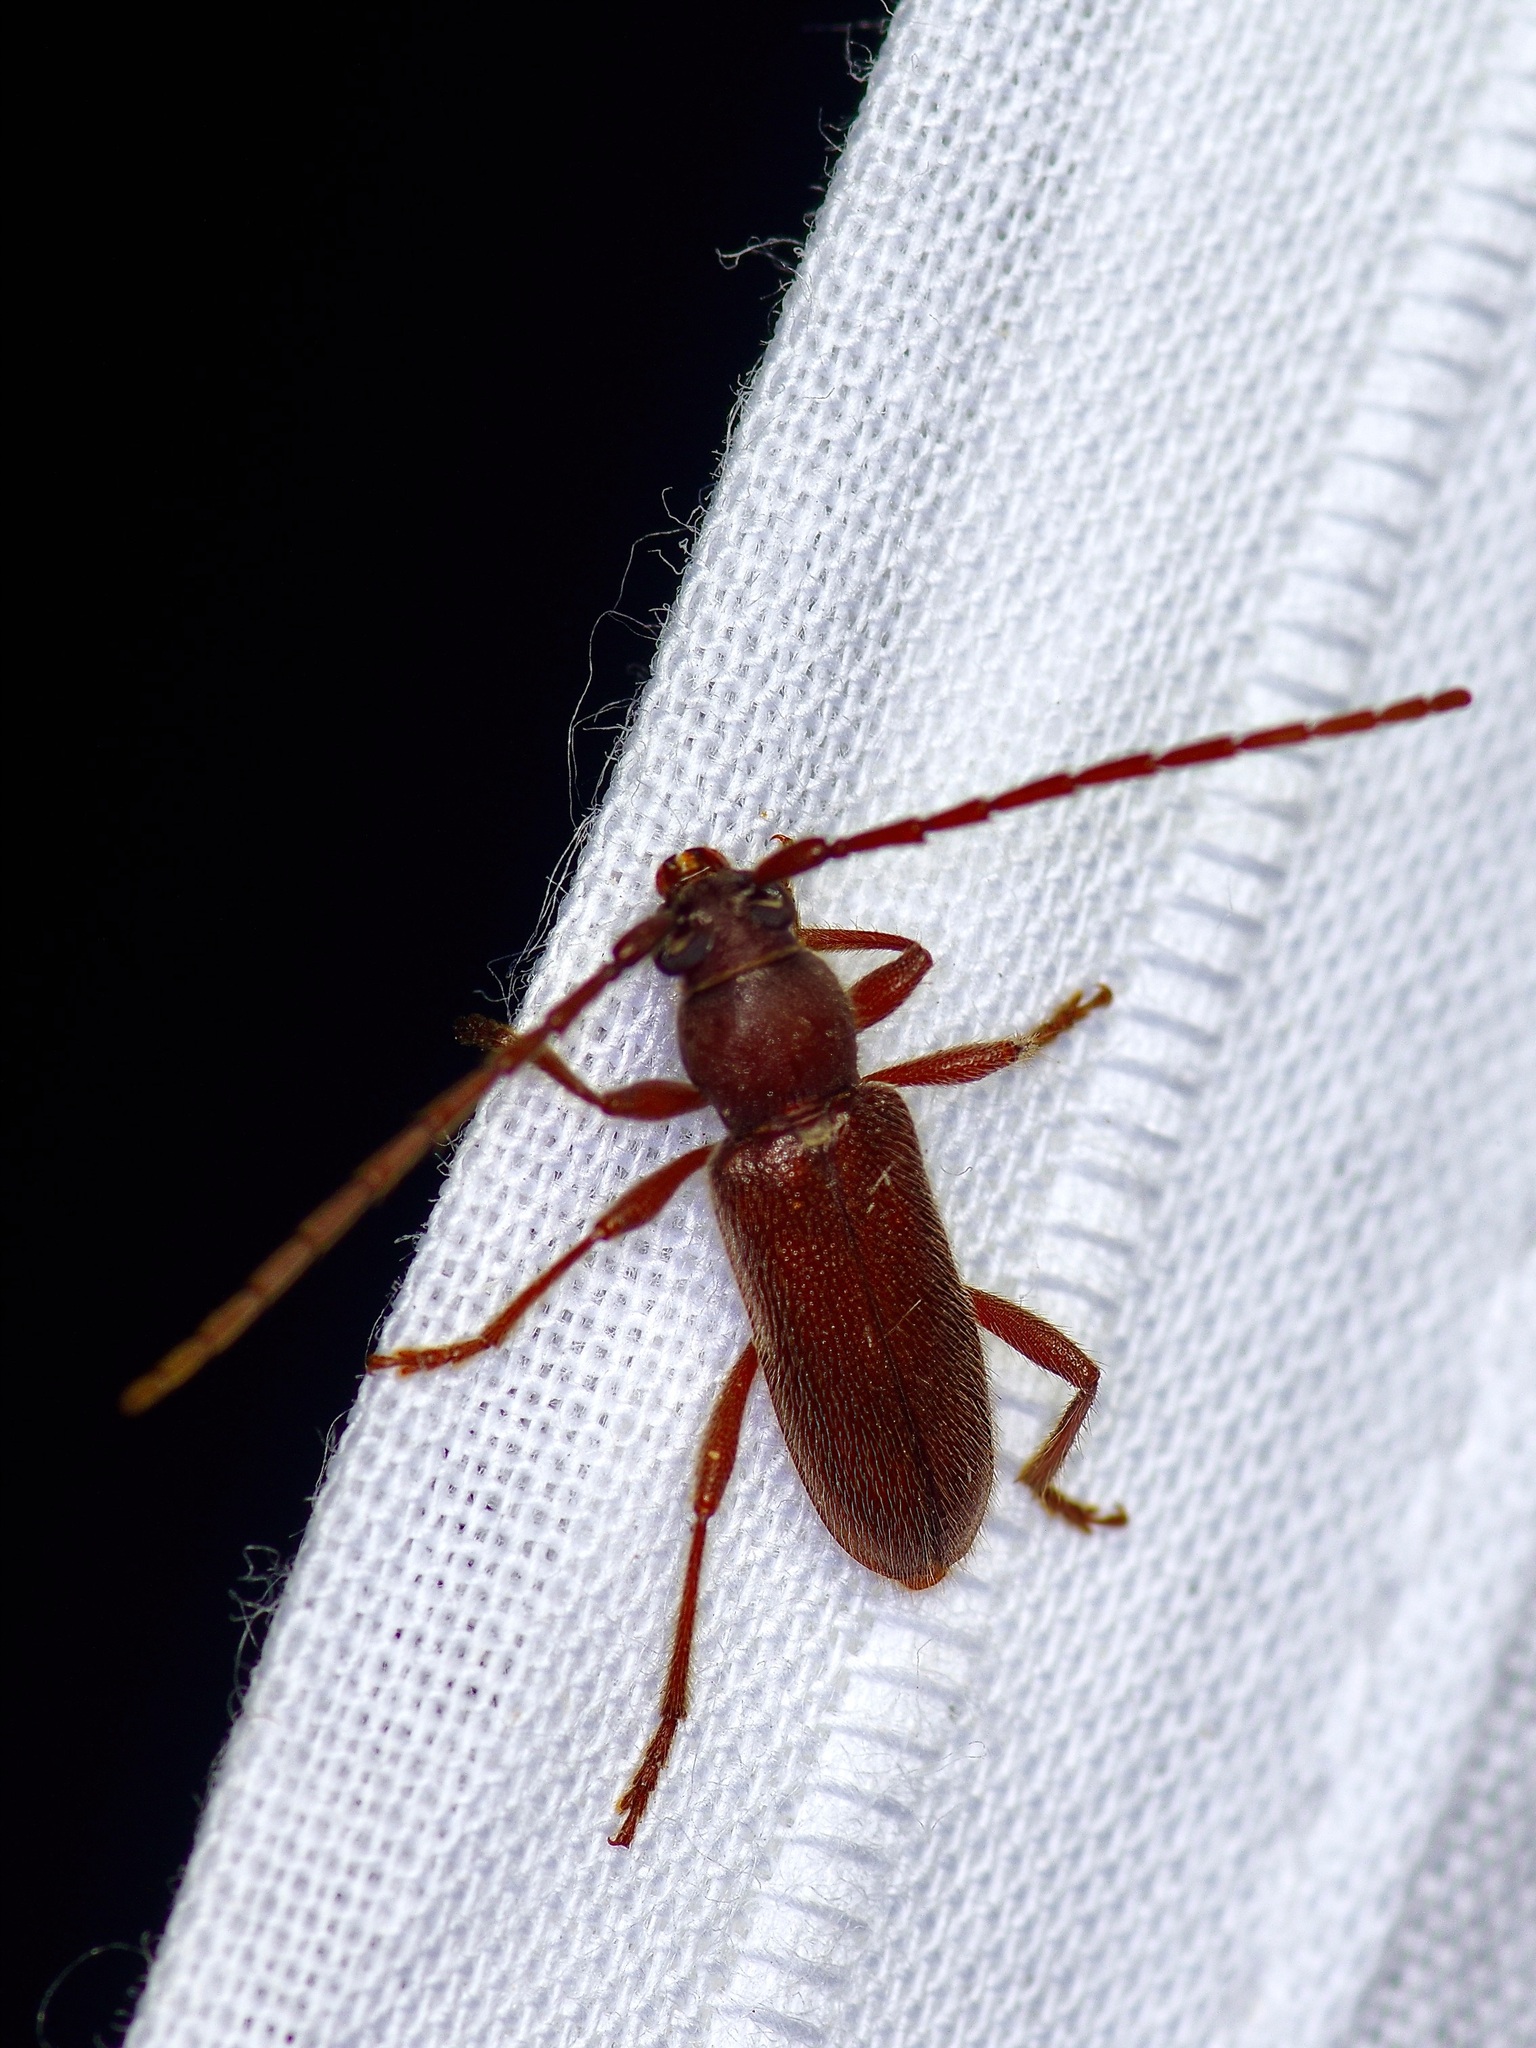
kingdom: Animalia
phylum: Arthropoda
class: Insecta
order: Coleoptera
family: Cerambycidae
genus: Anelaphus
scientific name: Anelaphus moestus
